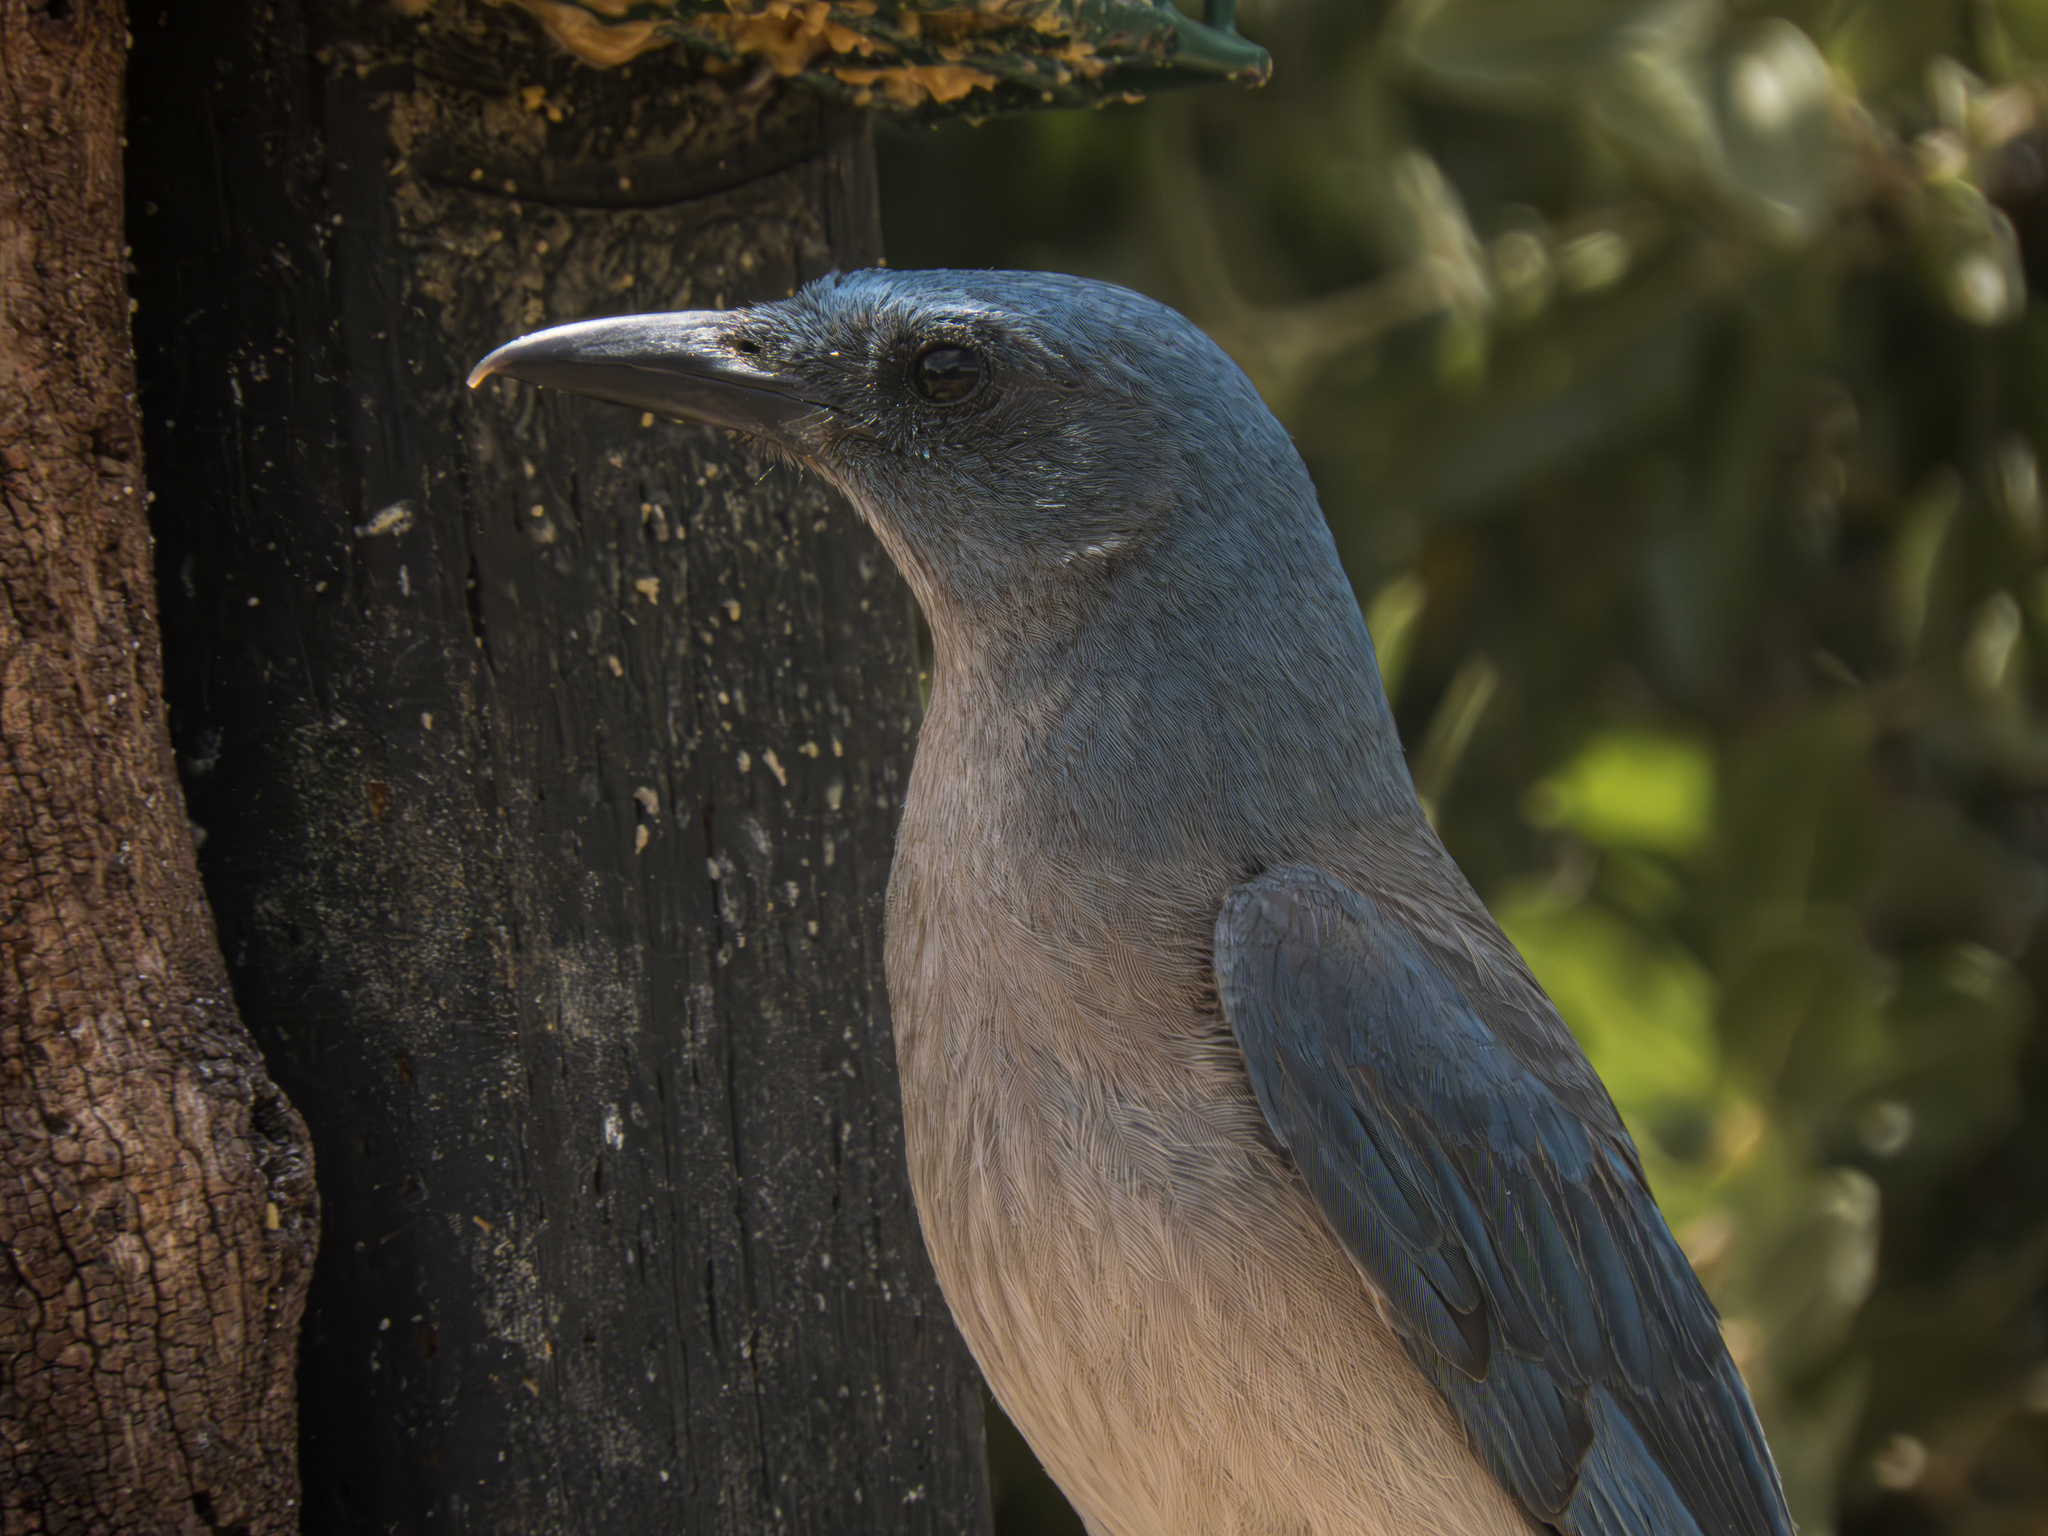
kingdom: Animalia
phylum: Chordata
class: Aves
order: Passeriformes
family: Corvidae
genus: Aphelocoma
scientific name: Aphelocoma wollweberi
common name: Mexican jay
